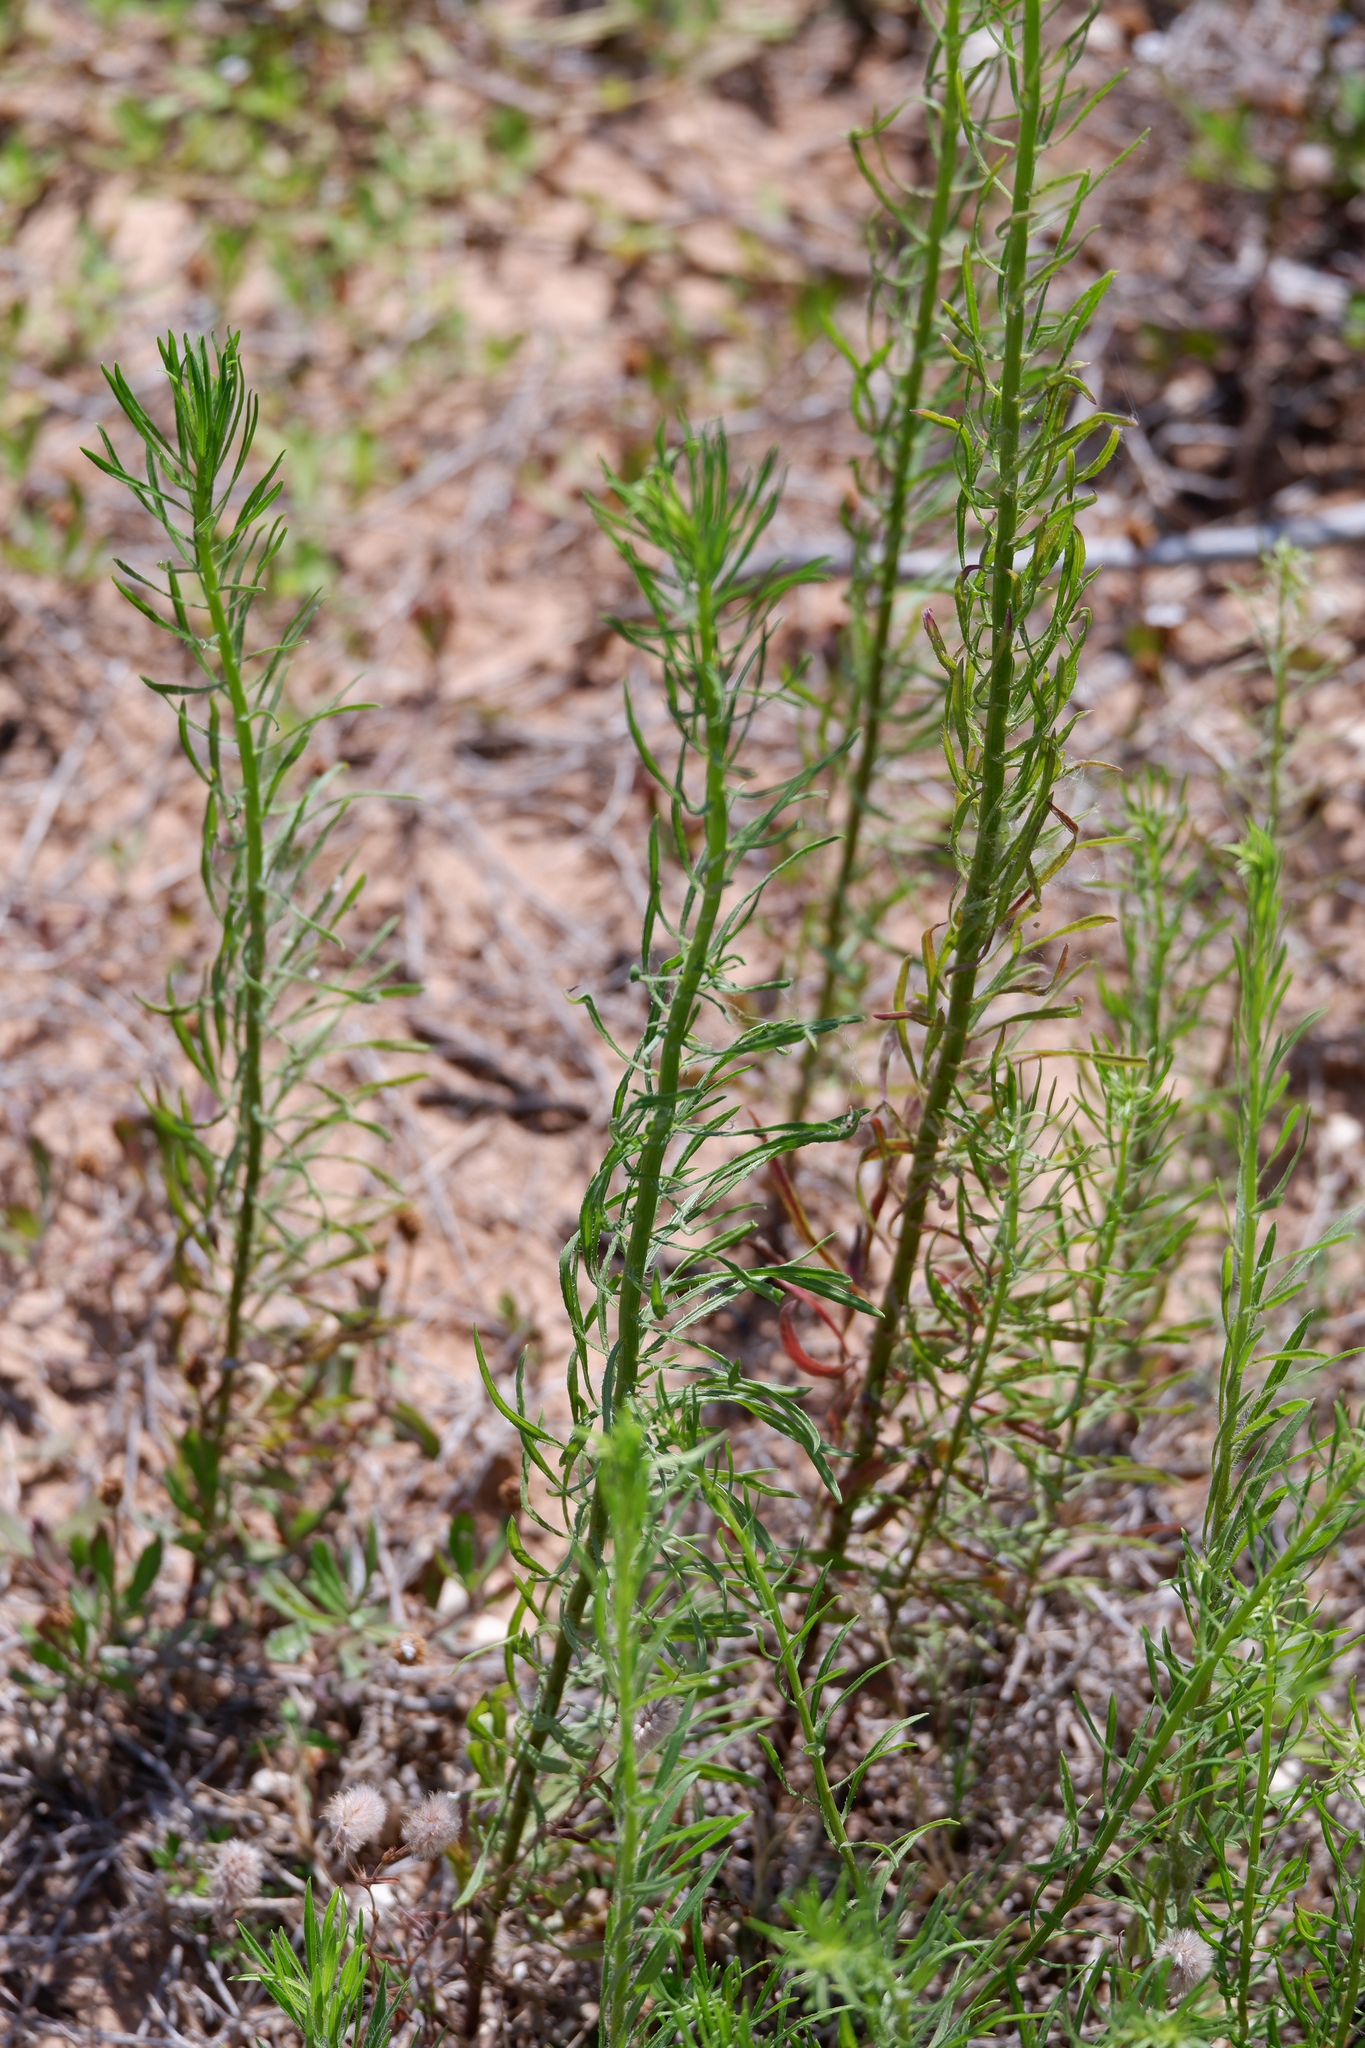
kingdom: Plantae
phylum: Tracheophyta
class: Magnoliopsida
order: Asterales
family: Asteraceae
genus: Erigeron
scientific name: Erigeron canadensis
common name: Canadian fleabane
